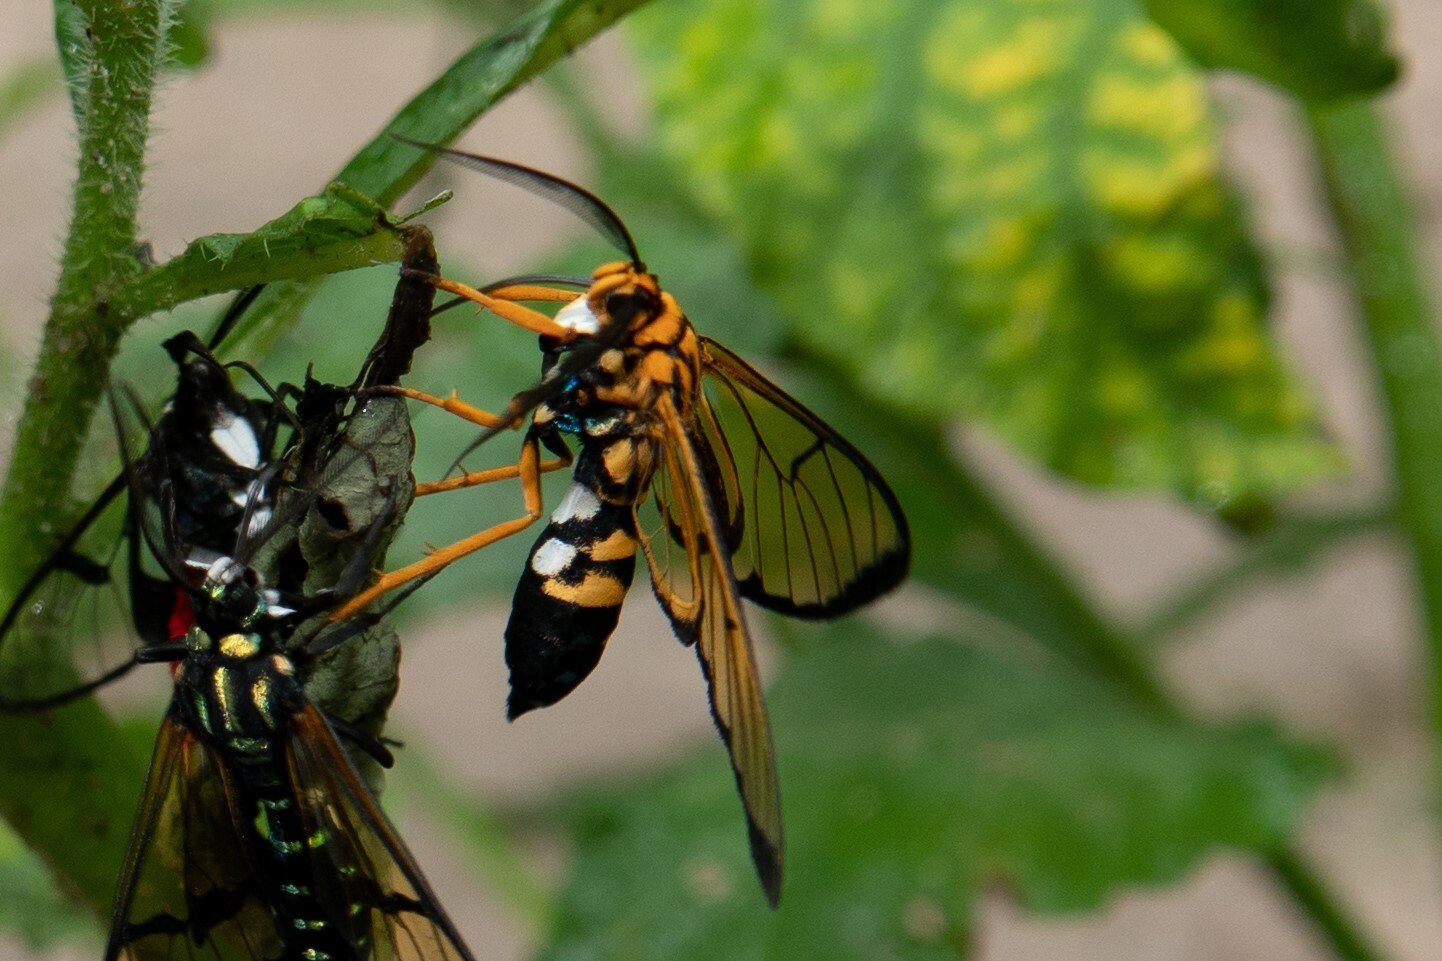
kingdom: Animalia
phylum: Arthropoda
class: Insecta
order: Lepidoptera
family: Erebidae
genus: Trichura
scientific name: Trichura aurifera
